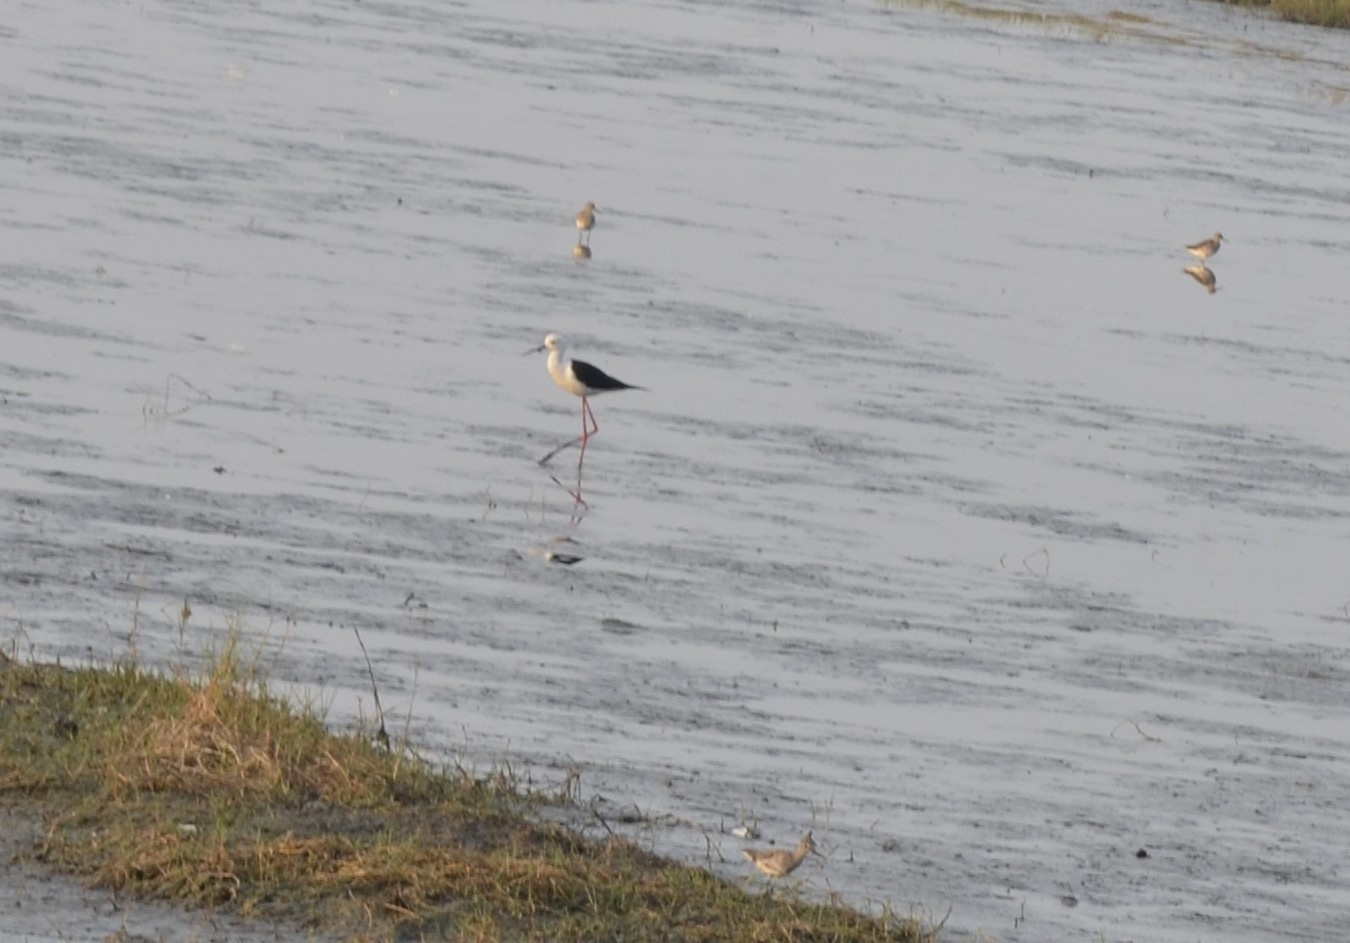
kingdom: Animalia
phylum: Chordata
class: Aves
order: Charadriiformes
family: Recurvirostridae
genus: Himantopus
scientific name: Himantopus himantopus
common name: Black-winged stilt
